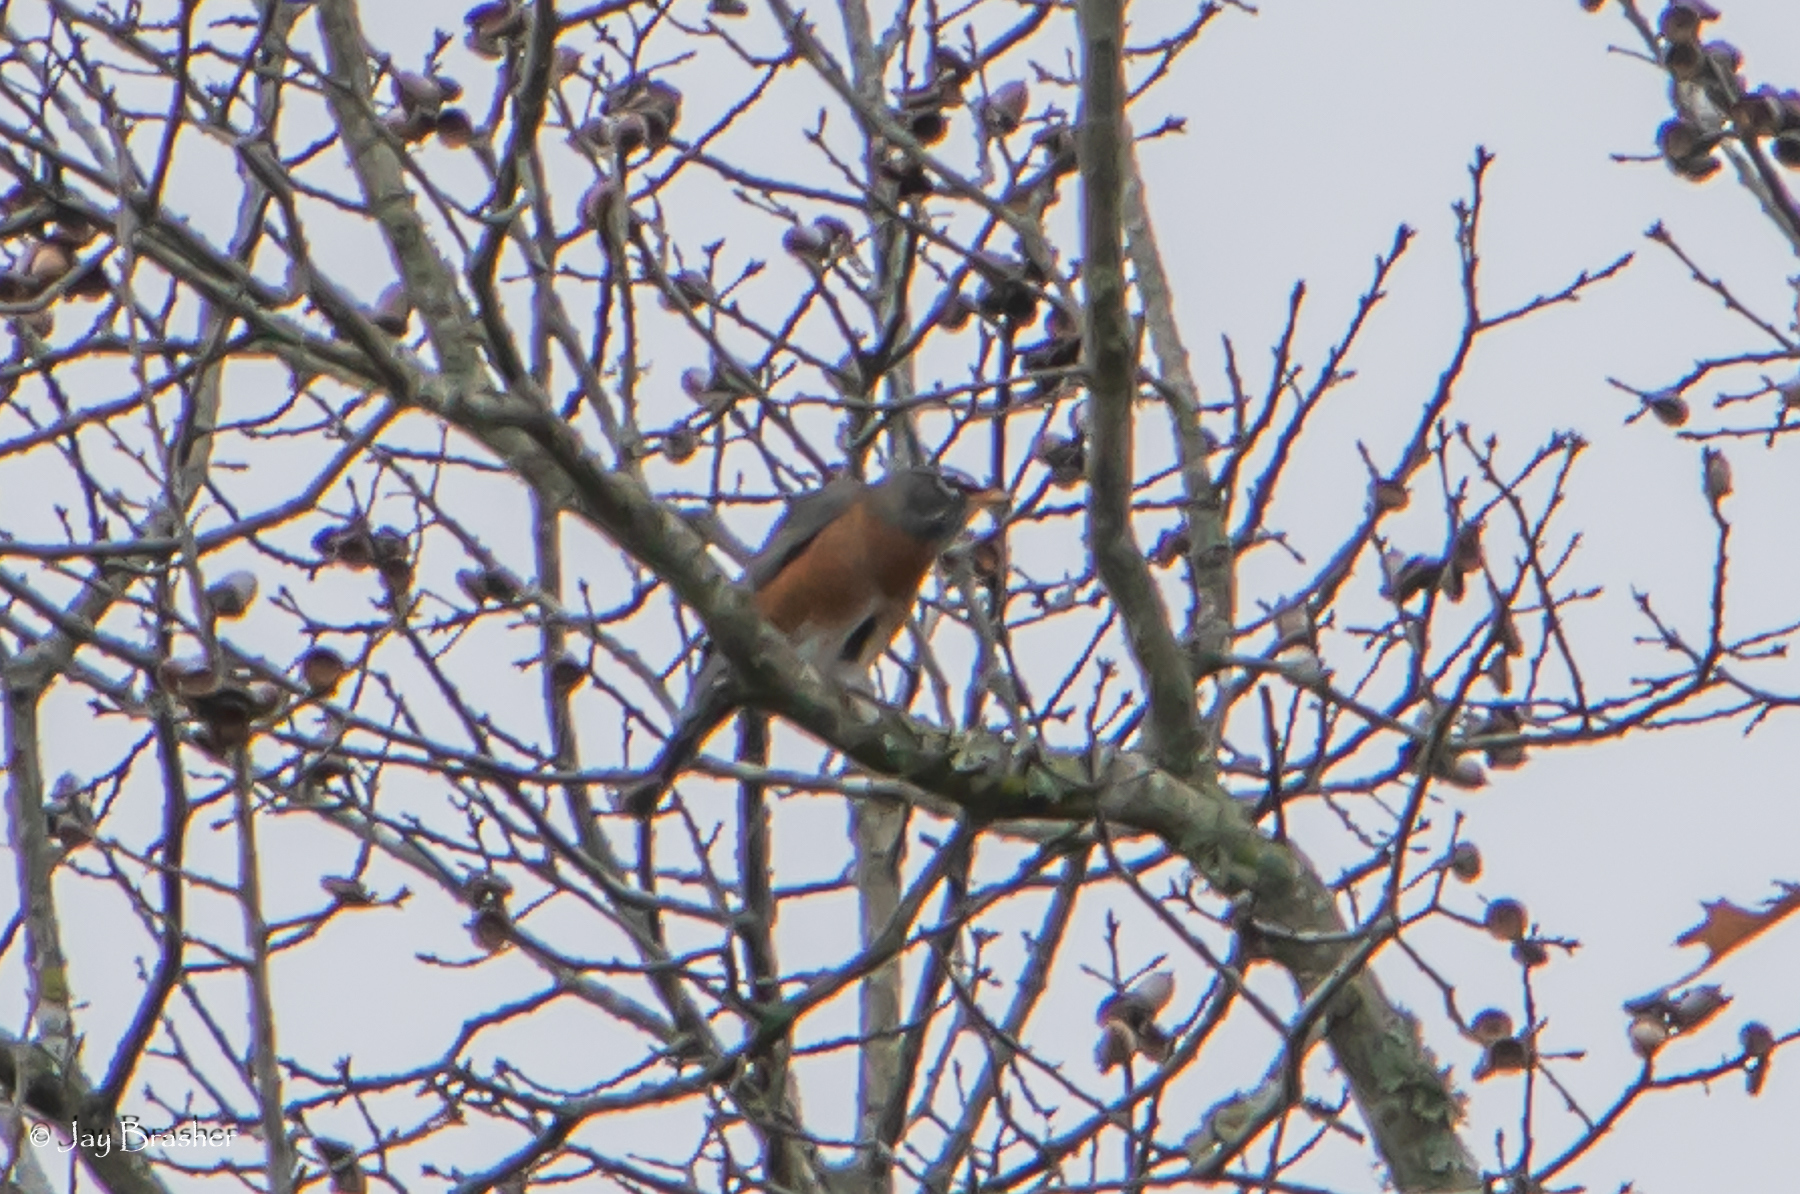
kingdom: Animalia
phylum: Chordata
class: Aves
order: Passeriformes
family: Turdidae
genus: Turdus
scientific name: Turdus migratorius
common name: American robin
